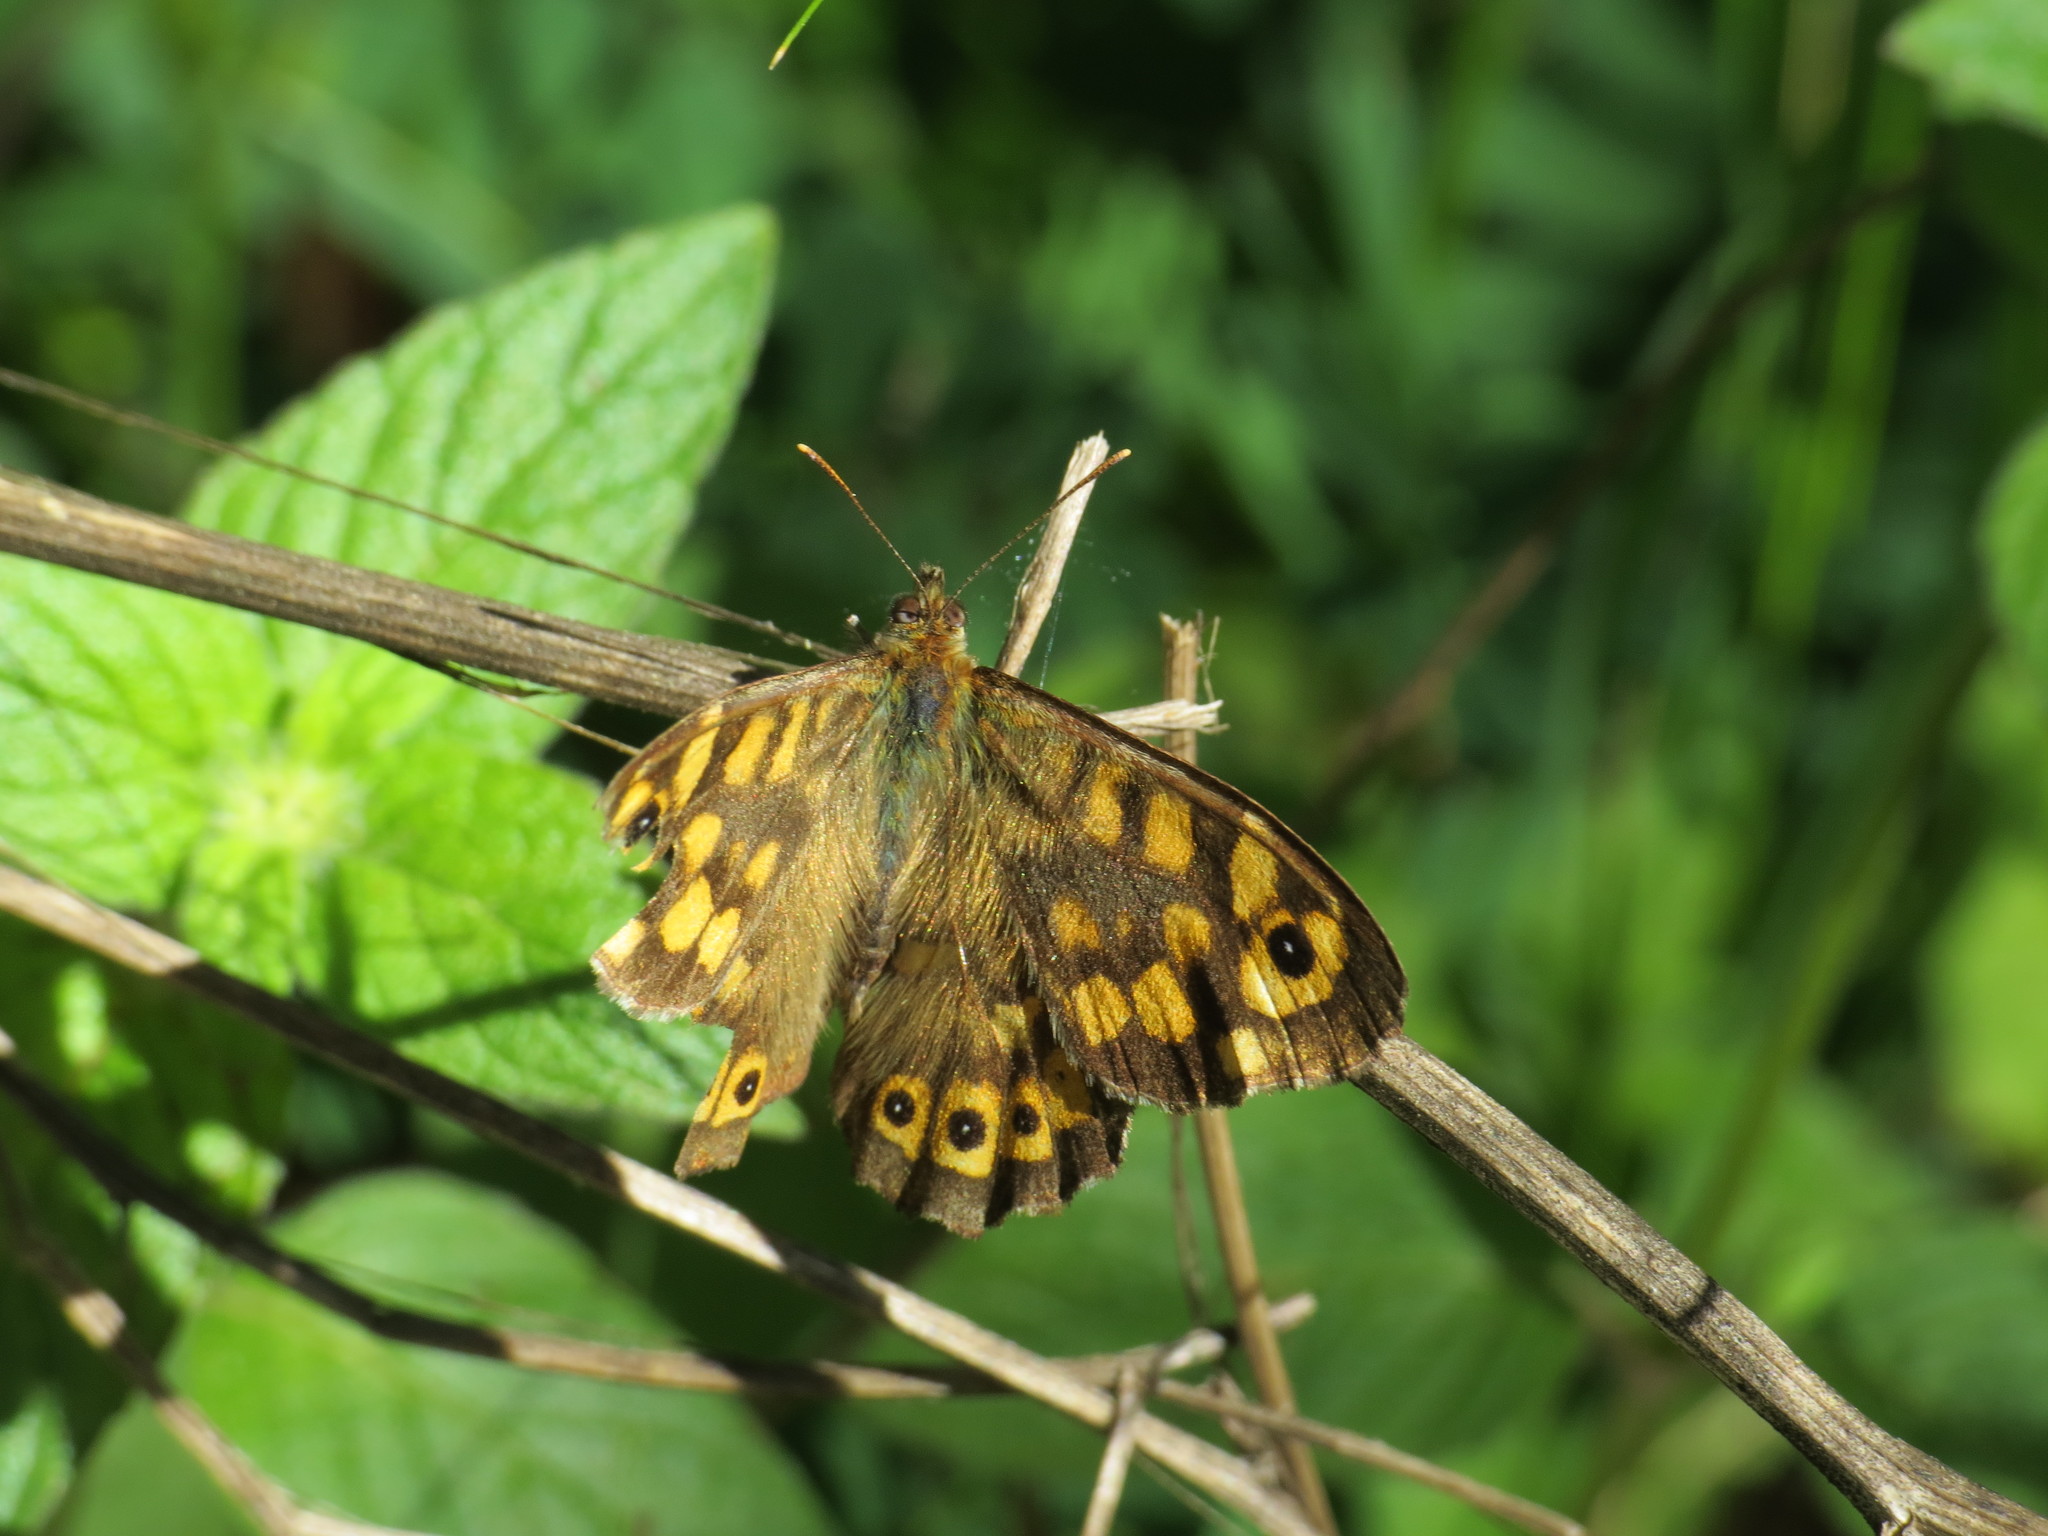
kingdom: Animalia
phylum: Arthropoda
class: Insecta
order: Lepidoptera
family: Nymphalidae
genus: Pararge
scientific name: Pararge aegeria
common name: Speckled wood
